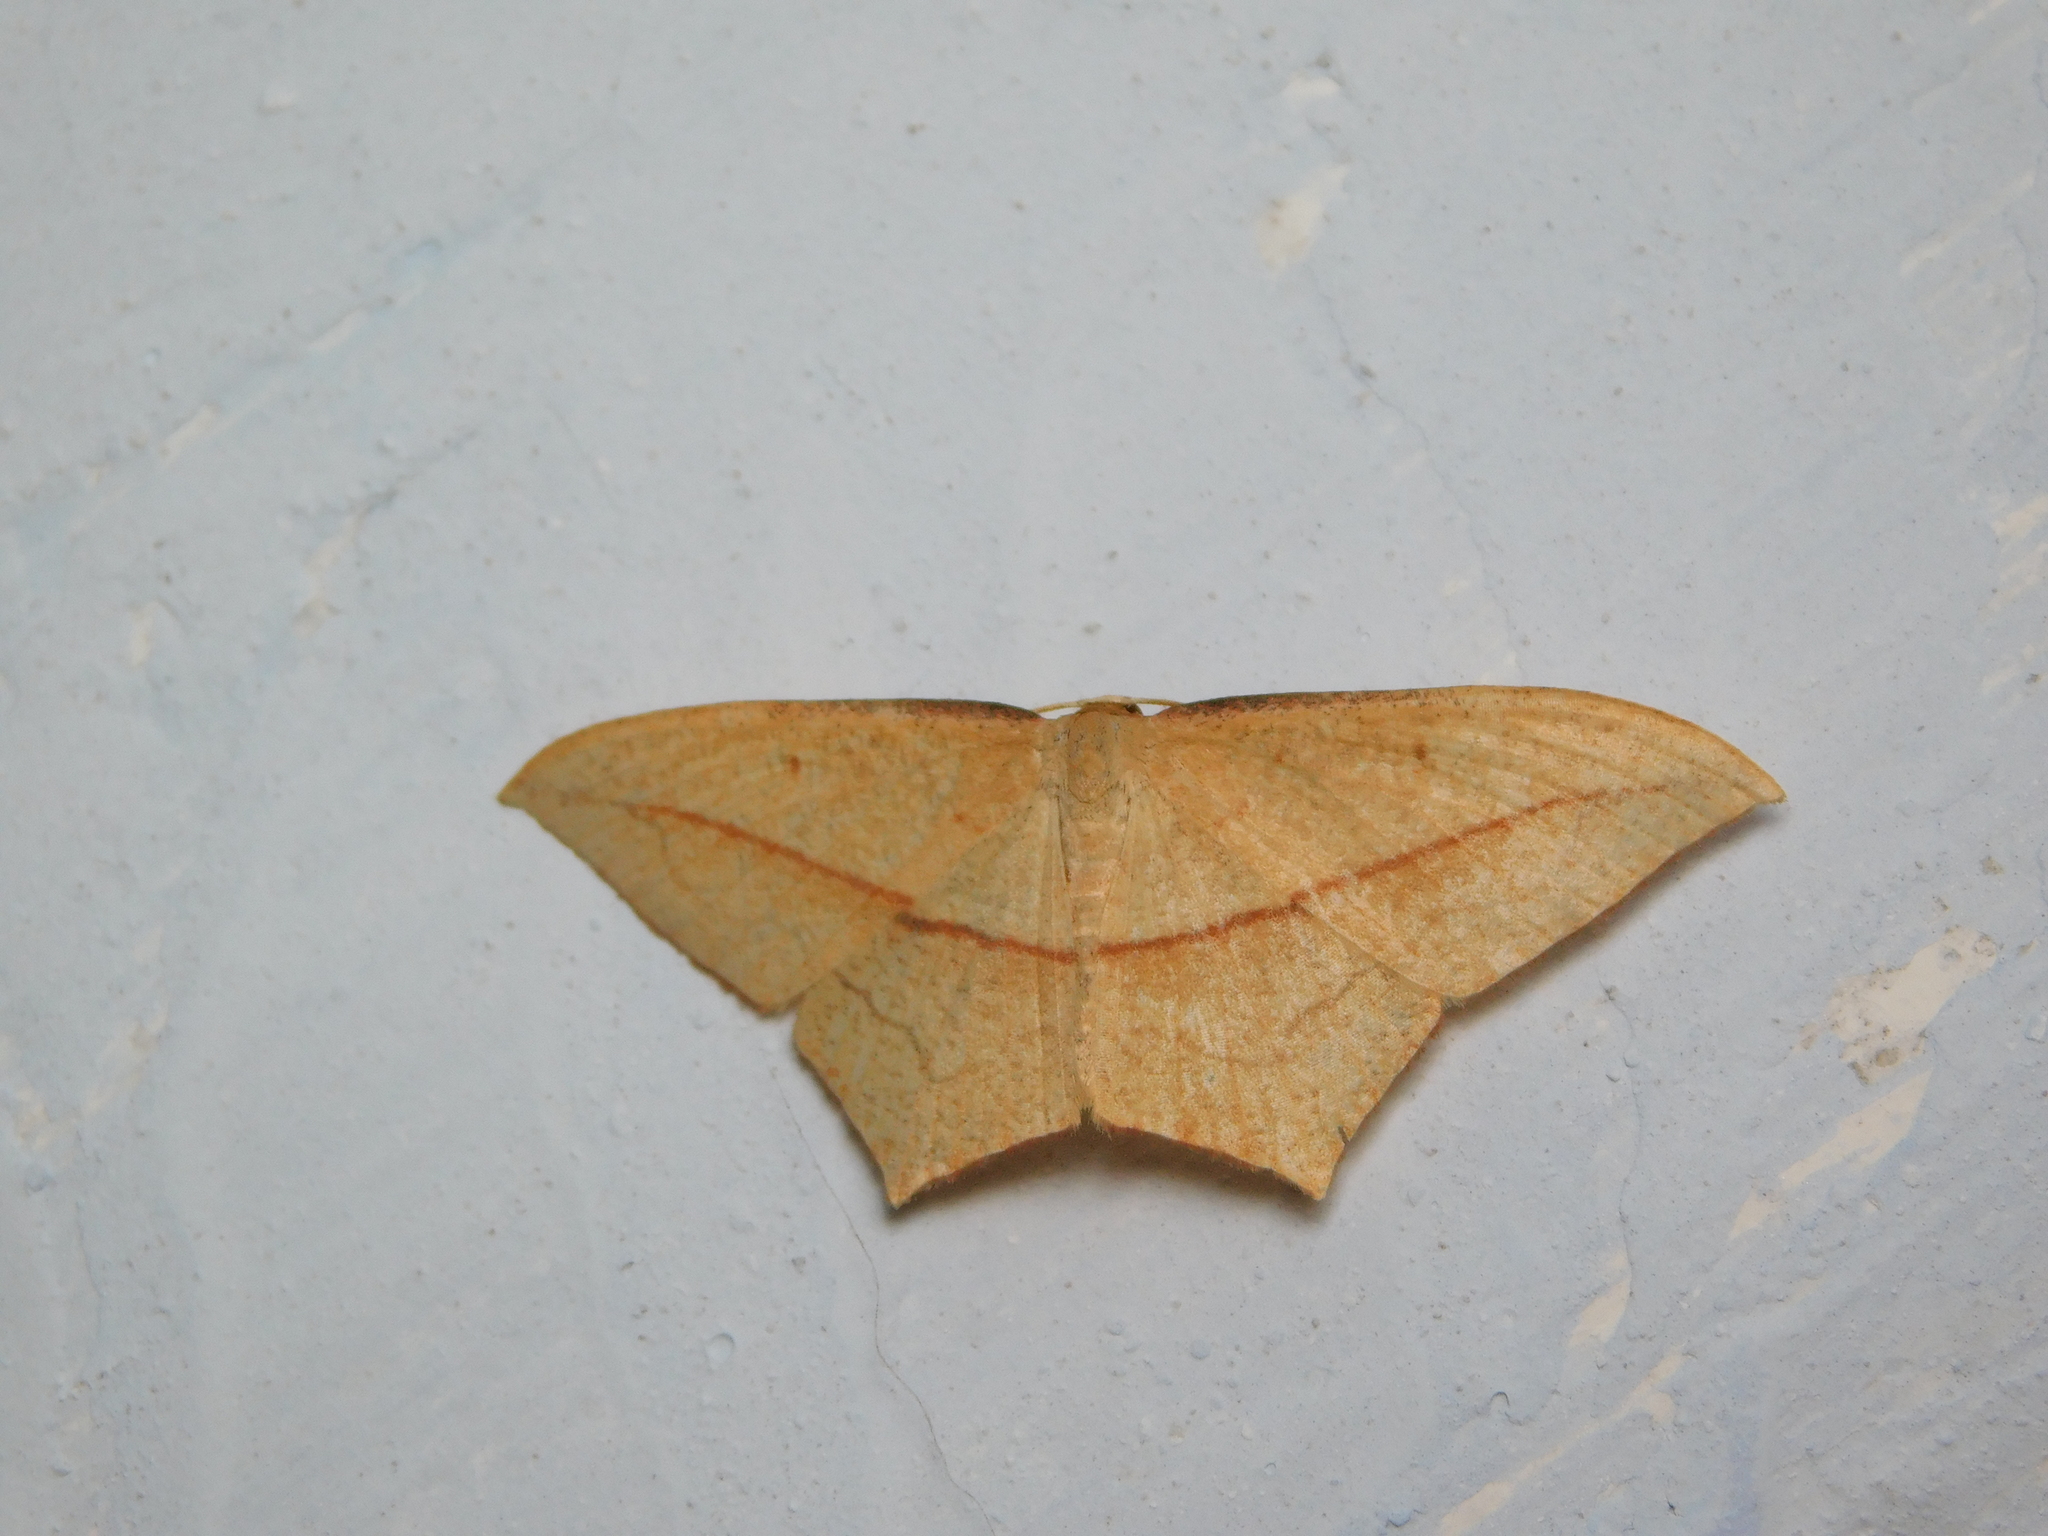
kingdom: Animalia
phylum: Arthropoda
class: Insecta
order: Lepidoptera
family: Geometridae
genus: Timandra
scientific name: Timandra nelsoni
